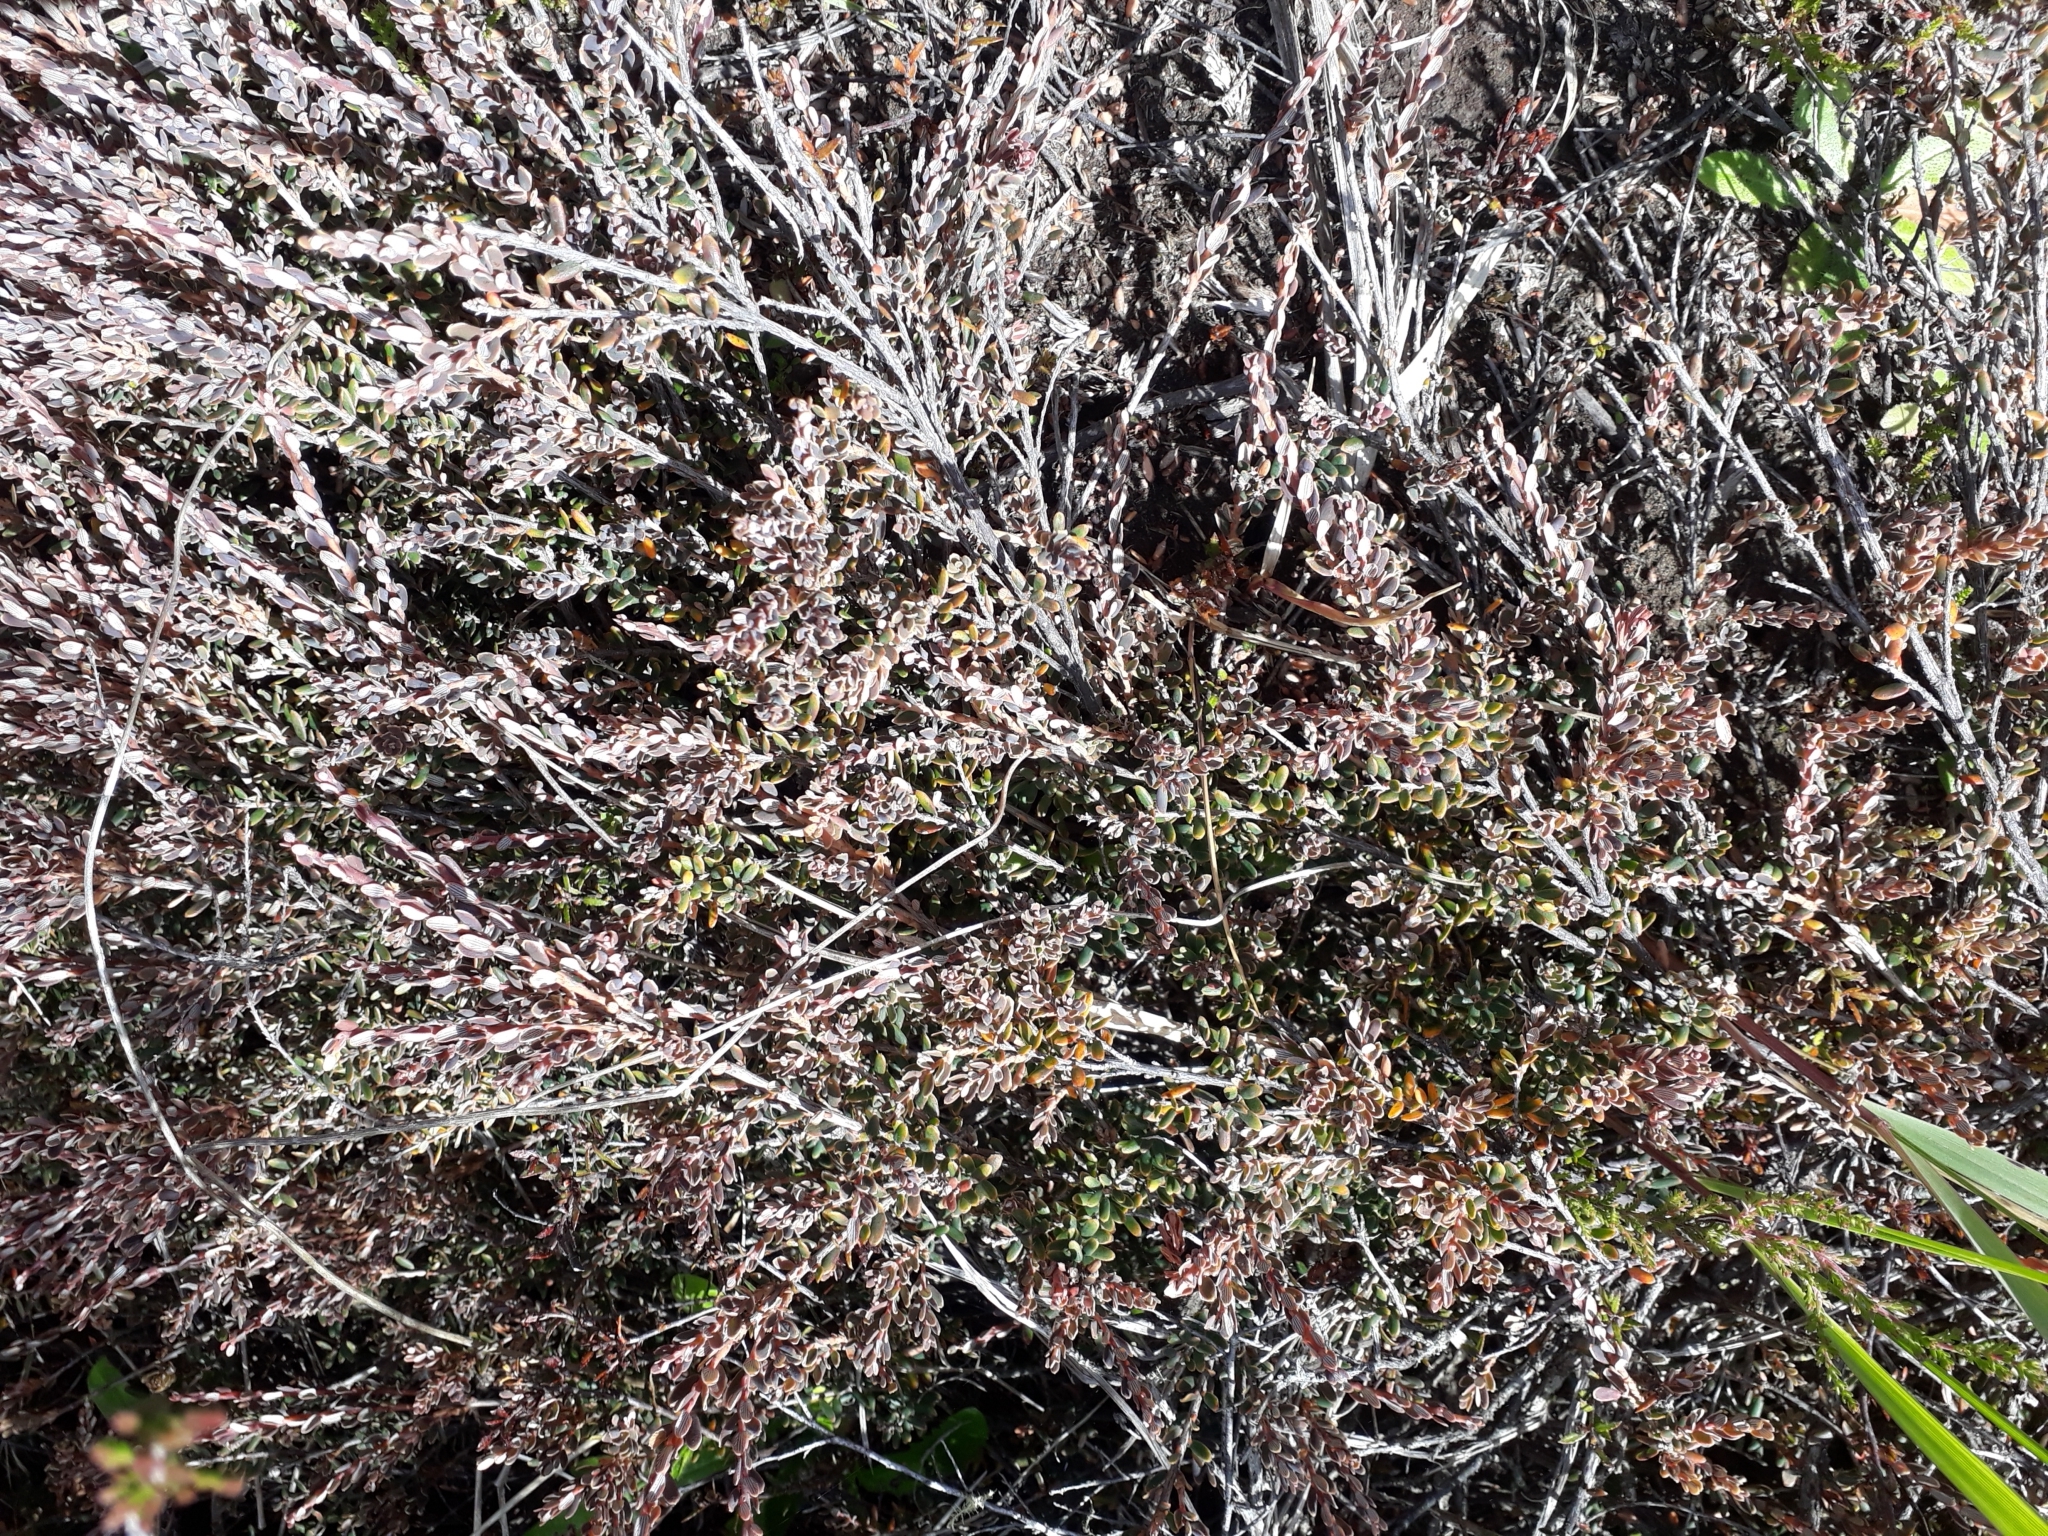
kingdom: Plantae
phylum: Tracheophyta
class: Magnoliopsida
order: Ericales
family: Ericaceae
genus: Acrothamnus
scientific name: Acrothamnus colensoi
